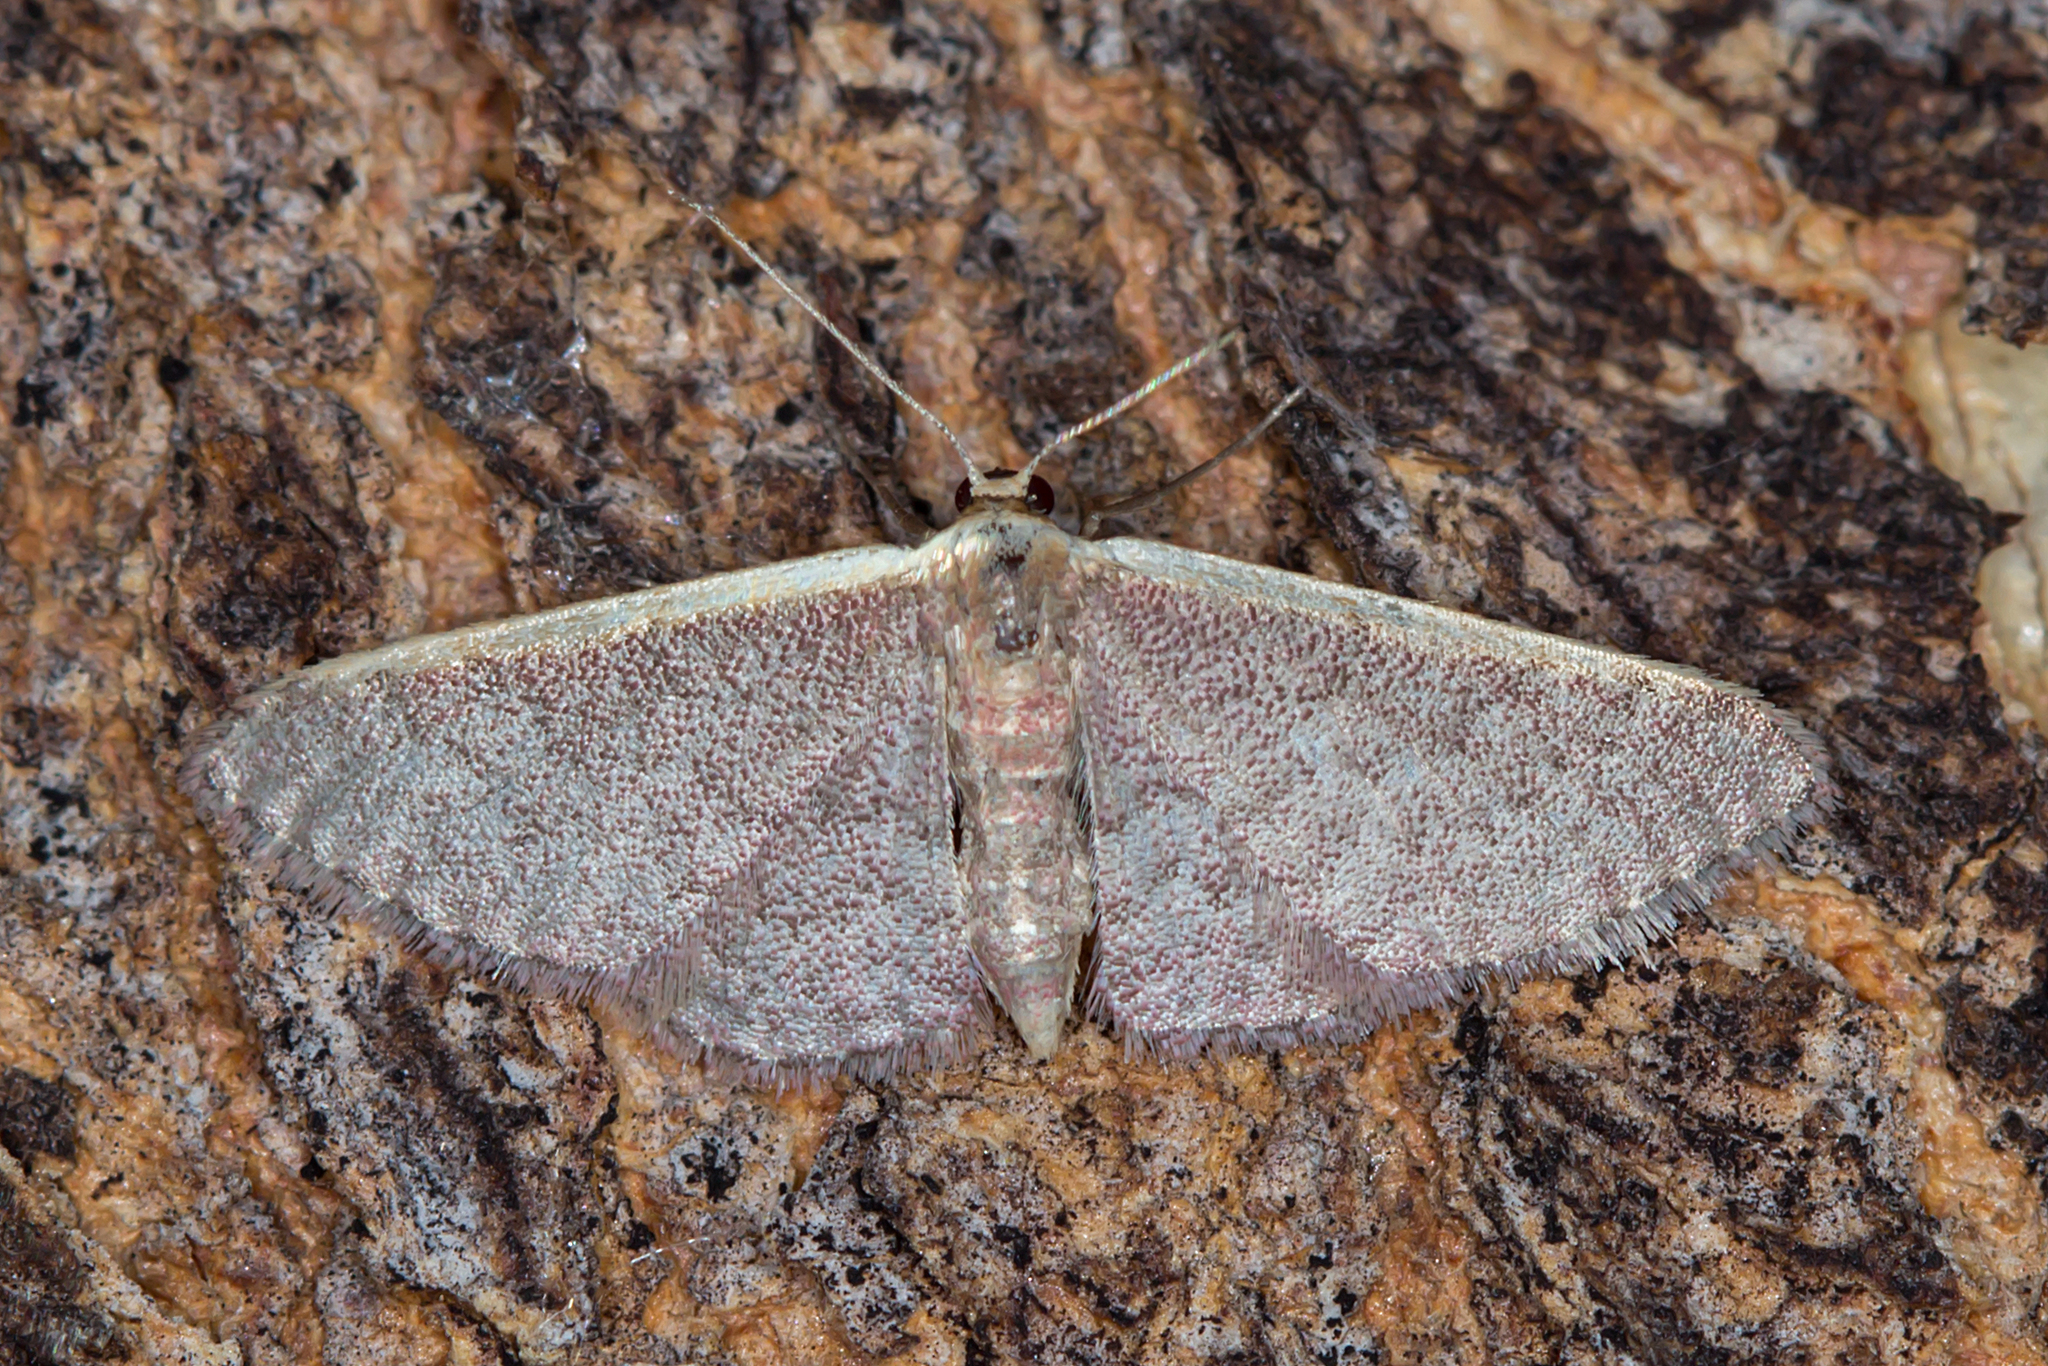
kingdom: Animalia
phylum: Arthropoda
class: Insecta
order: Lepidoptera
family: Geometridae
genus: Idaea
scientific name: Idaea costaria
